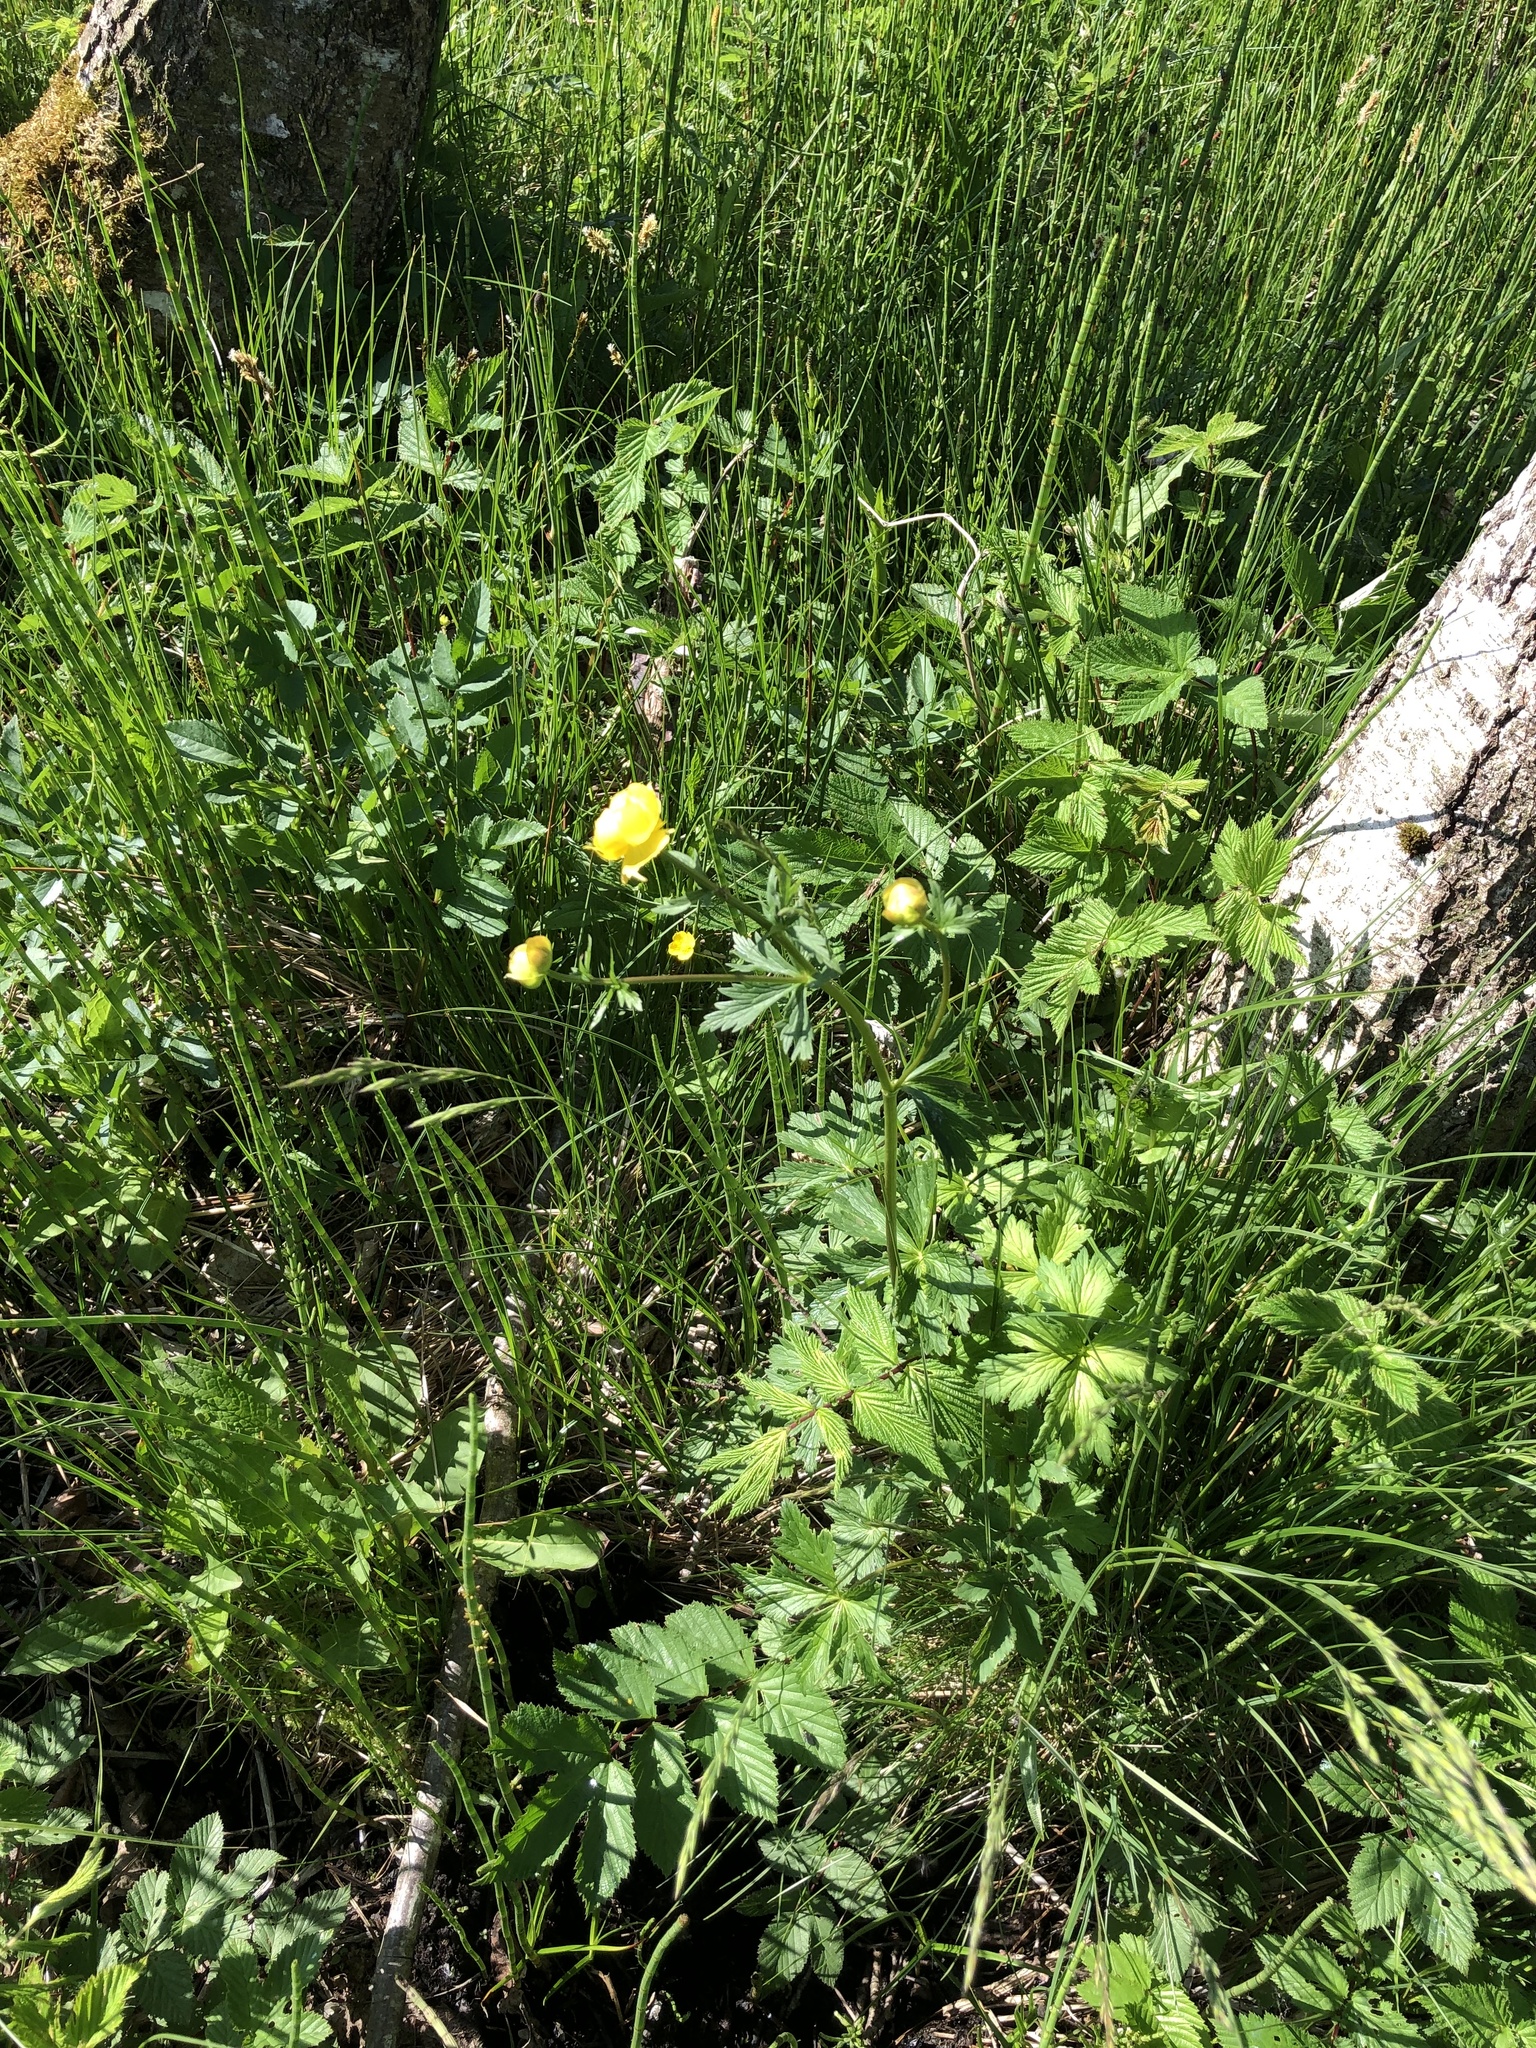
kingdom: Plantae
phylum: Tracheophyta
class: Magnoliopsida
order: Ranunculales
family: Ranunculaceae
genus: Trollius
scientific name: Trollius europaeus
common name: European globeflower
